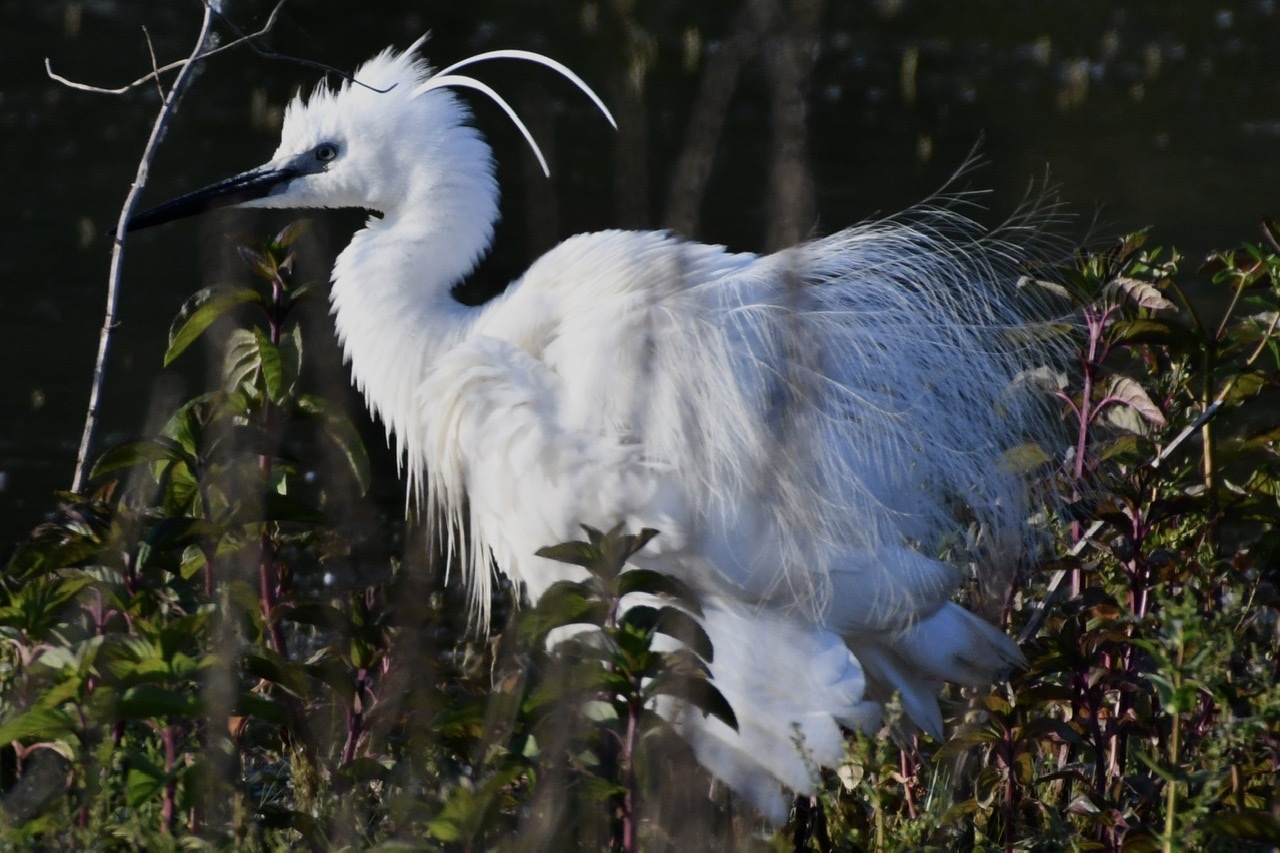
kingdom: Animalia
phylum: Chordata
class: Aves
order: Pelecaniformes
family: Ardeidae
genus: Egretta
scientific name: Egretta garzetta
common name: Little egret
